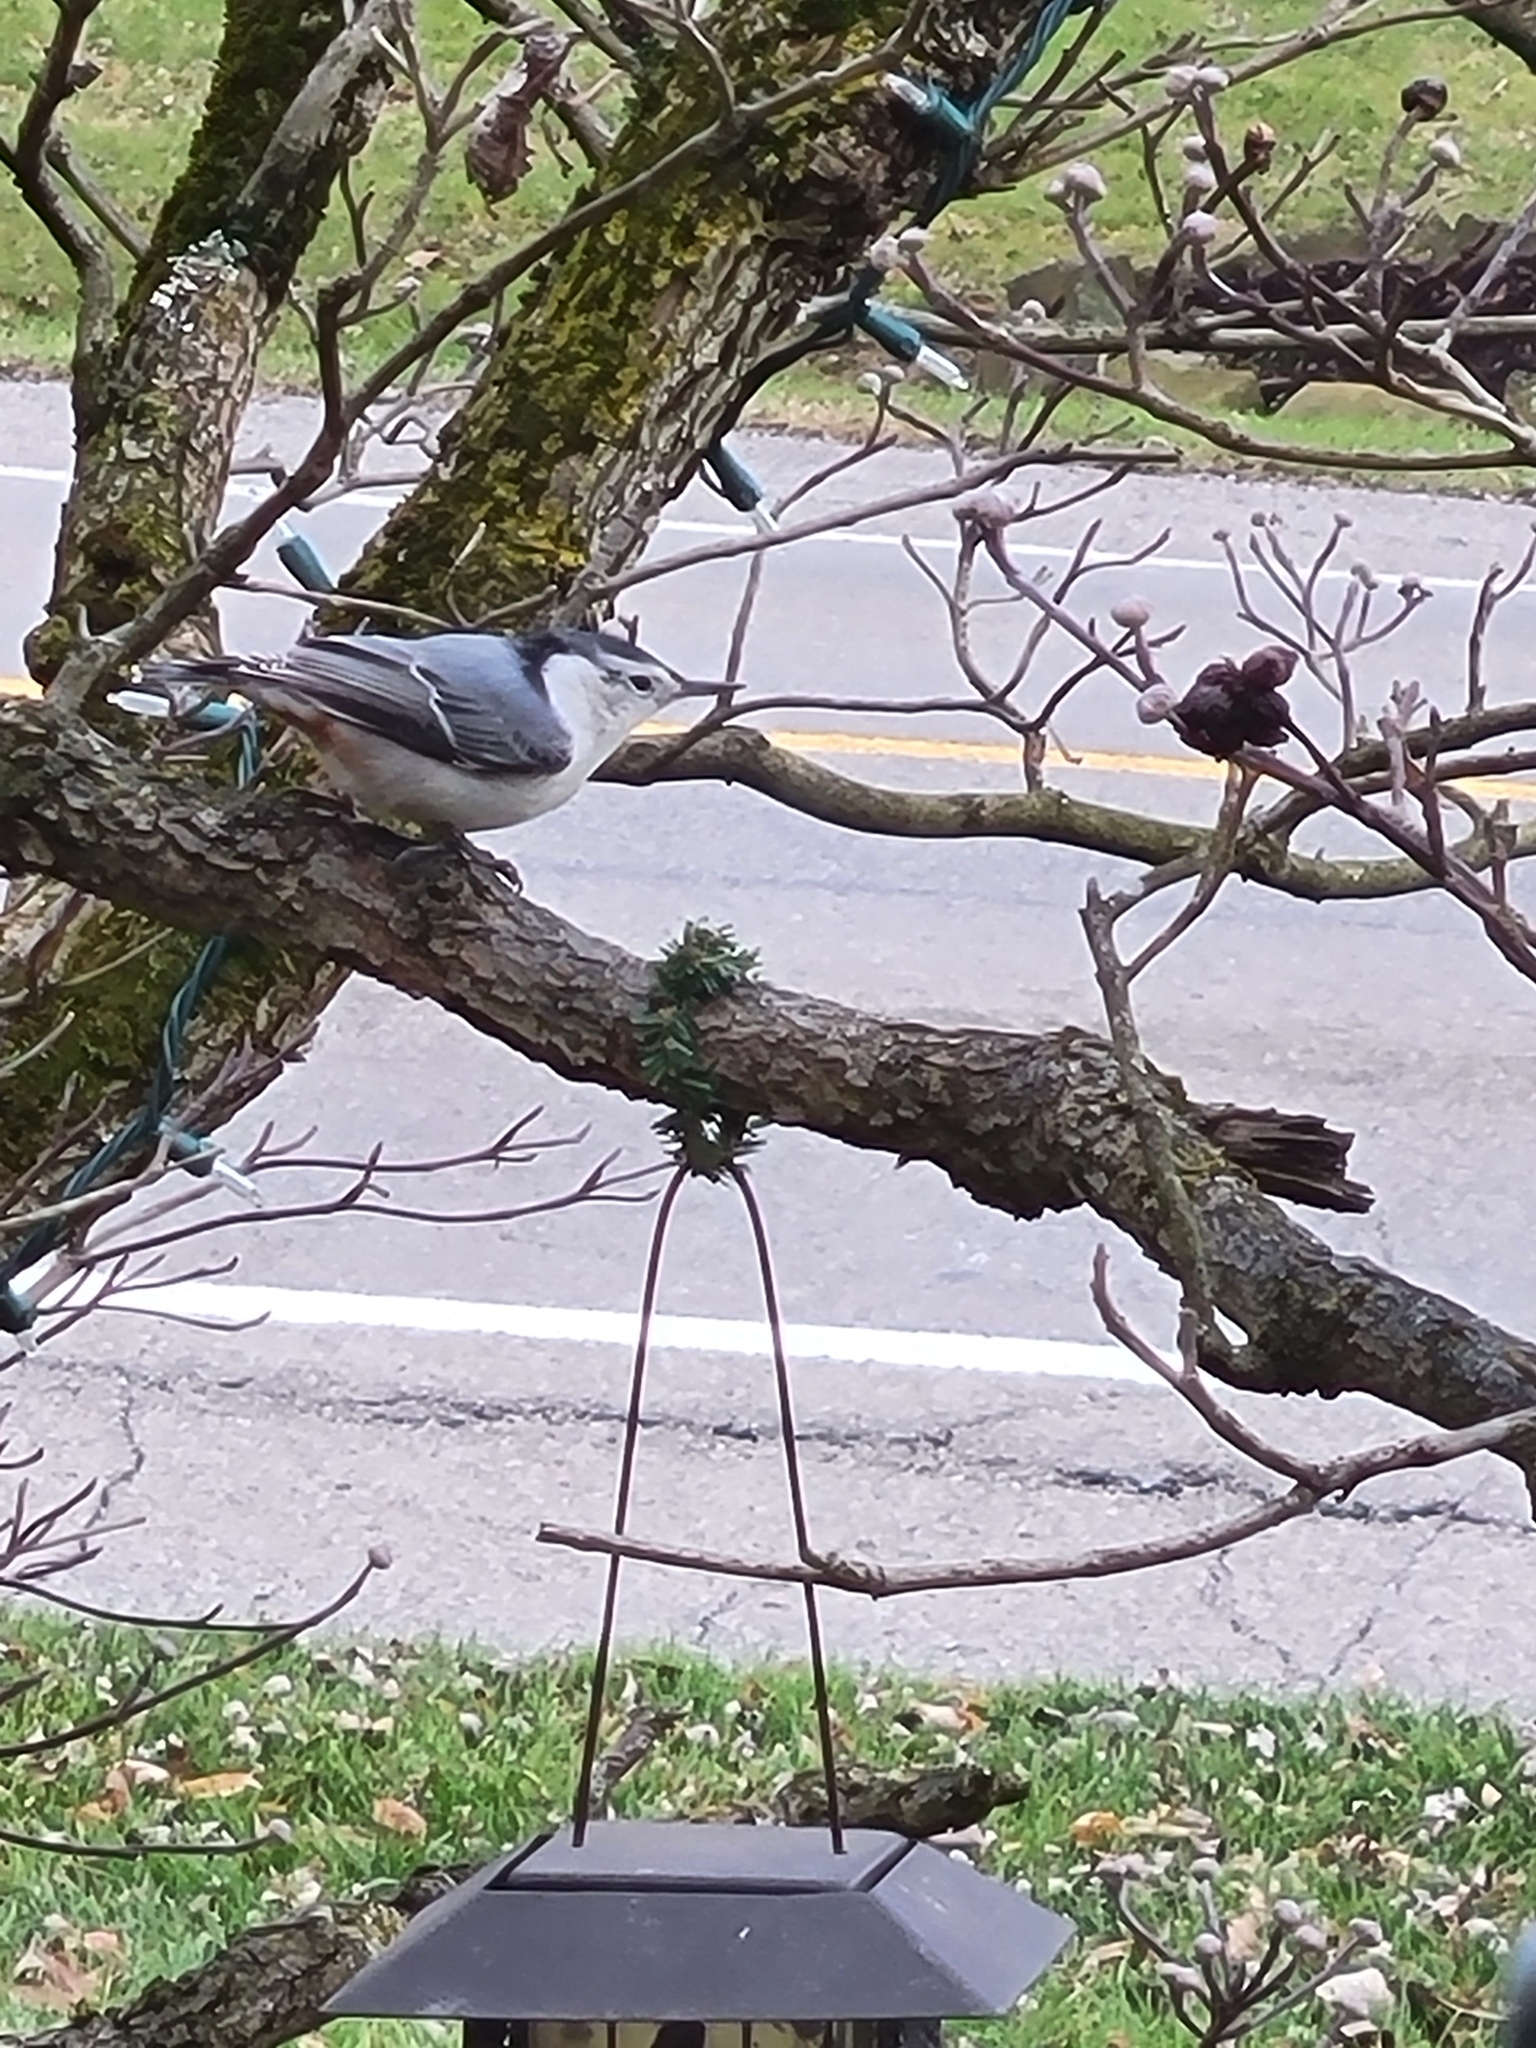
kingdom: Animalia
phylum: Chordata
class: Aves
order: Passeriformes
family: Sittidae
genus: Sitta
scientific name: Sitta carolinensis
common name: White-breasted nuthatch
